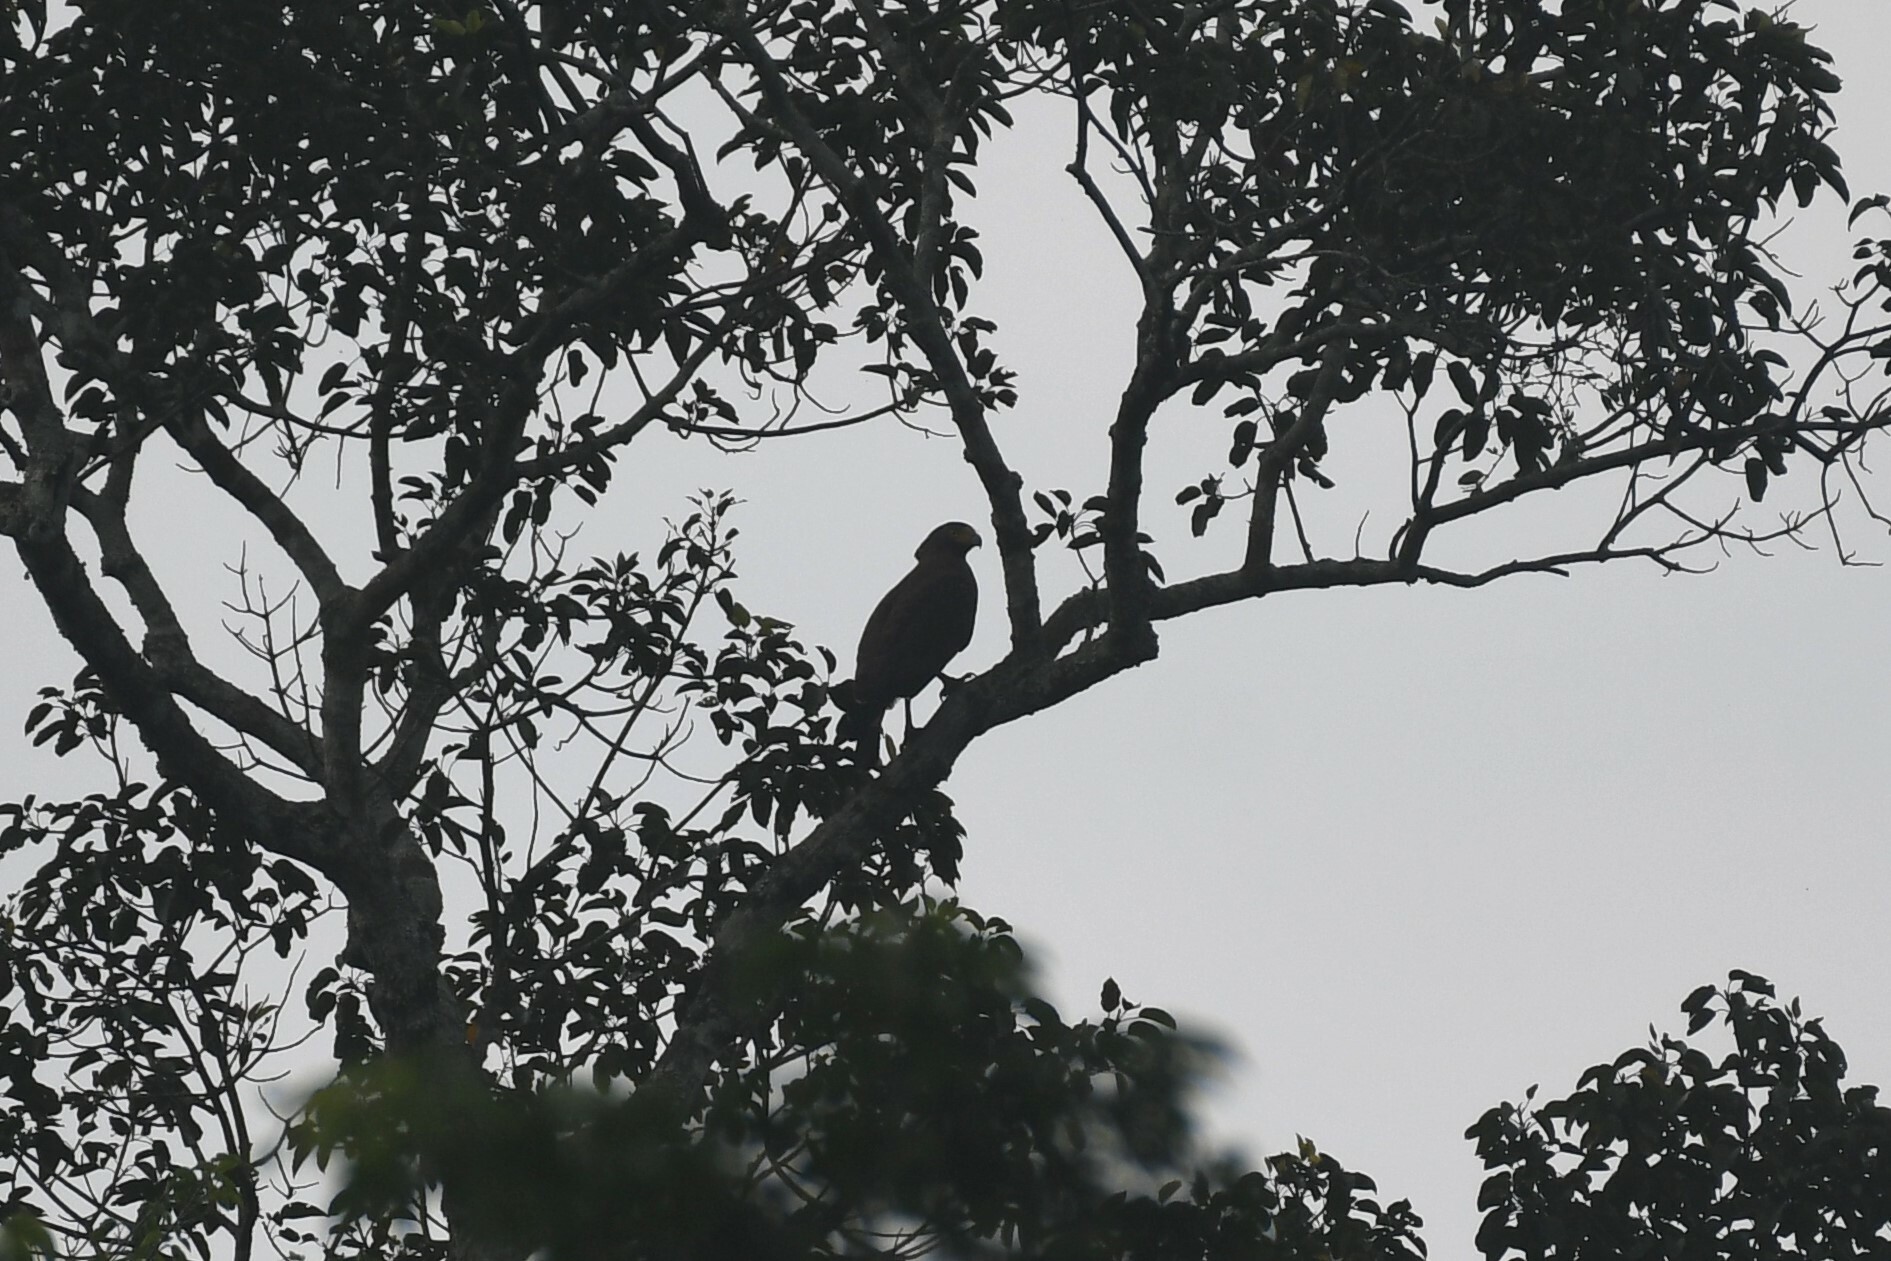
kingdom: Animalia
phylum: Chordata
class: Aves
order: Accipitriformes
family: Accipitridae
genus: Spilornis
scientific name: Spilornis cheela
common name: Crested serpent eagle
